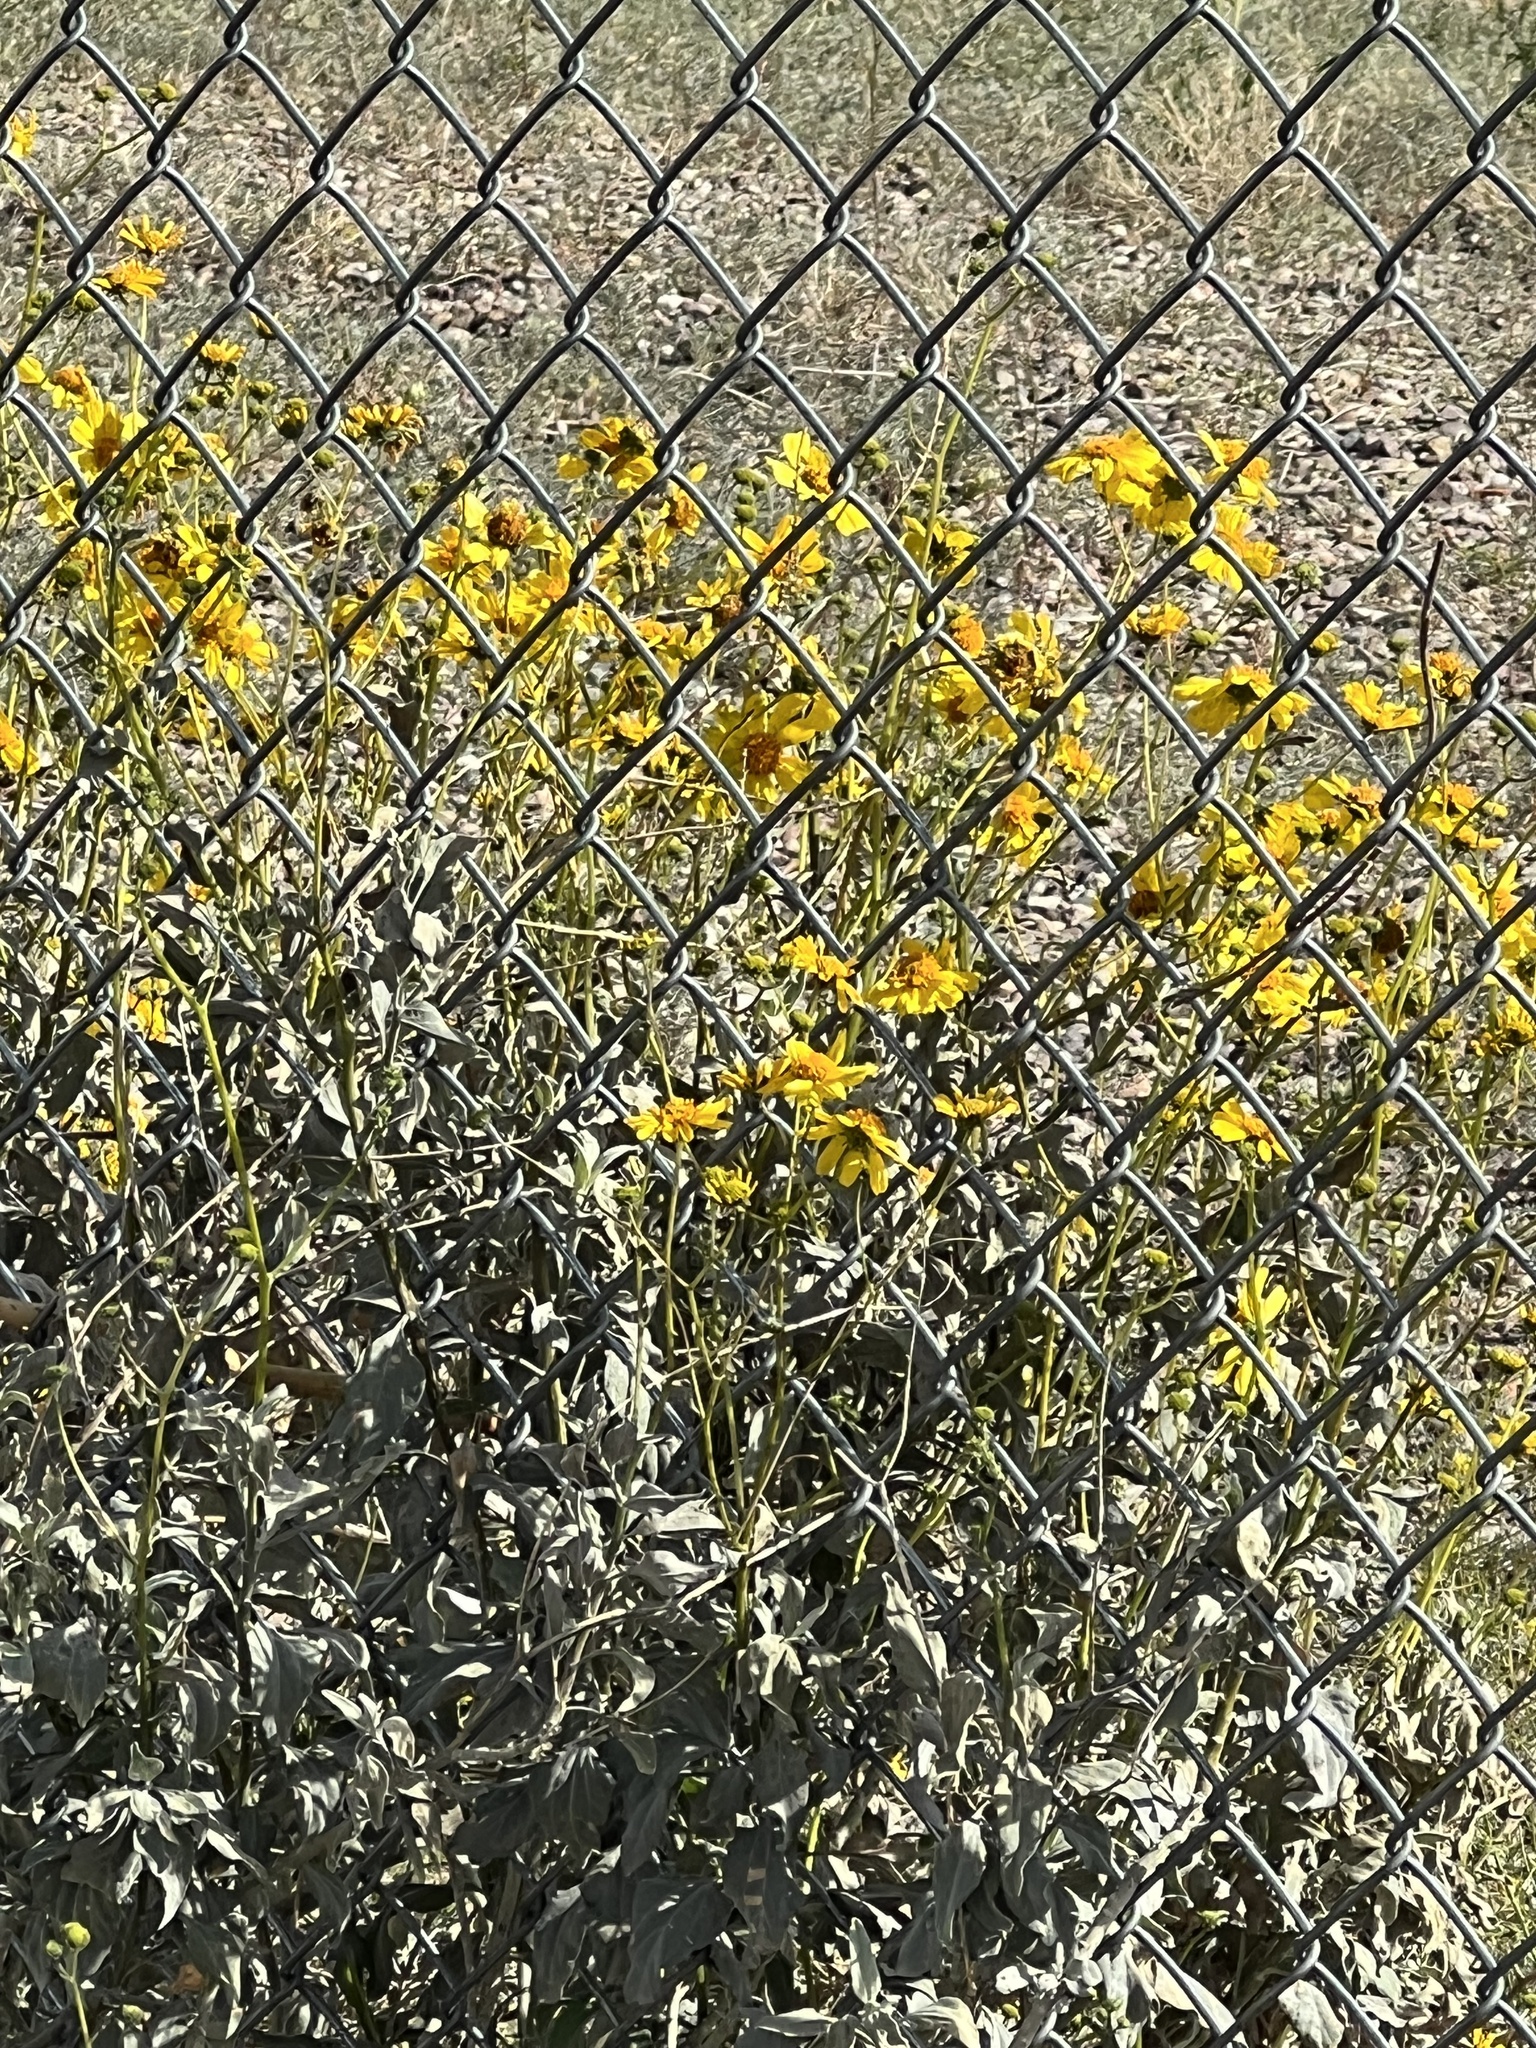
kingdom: Plantae
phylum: Tracheophyta
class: Magnoliopsida
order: Asterales
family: Asteraceae
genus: Encelia
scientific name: Encelia farinosa
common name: Brittlebush
